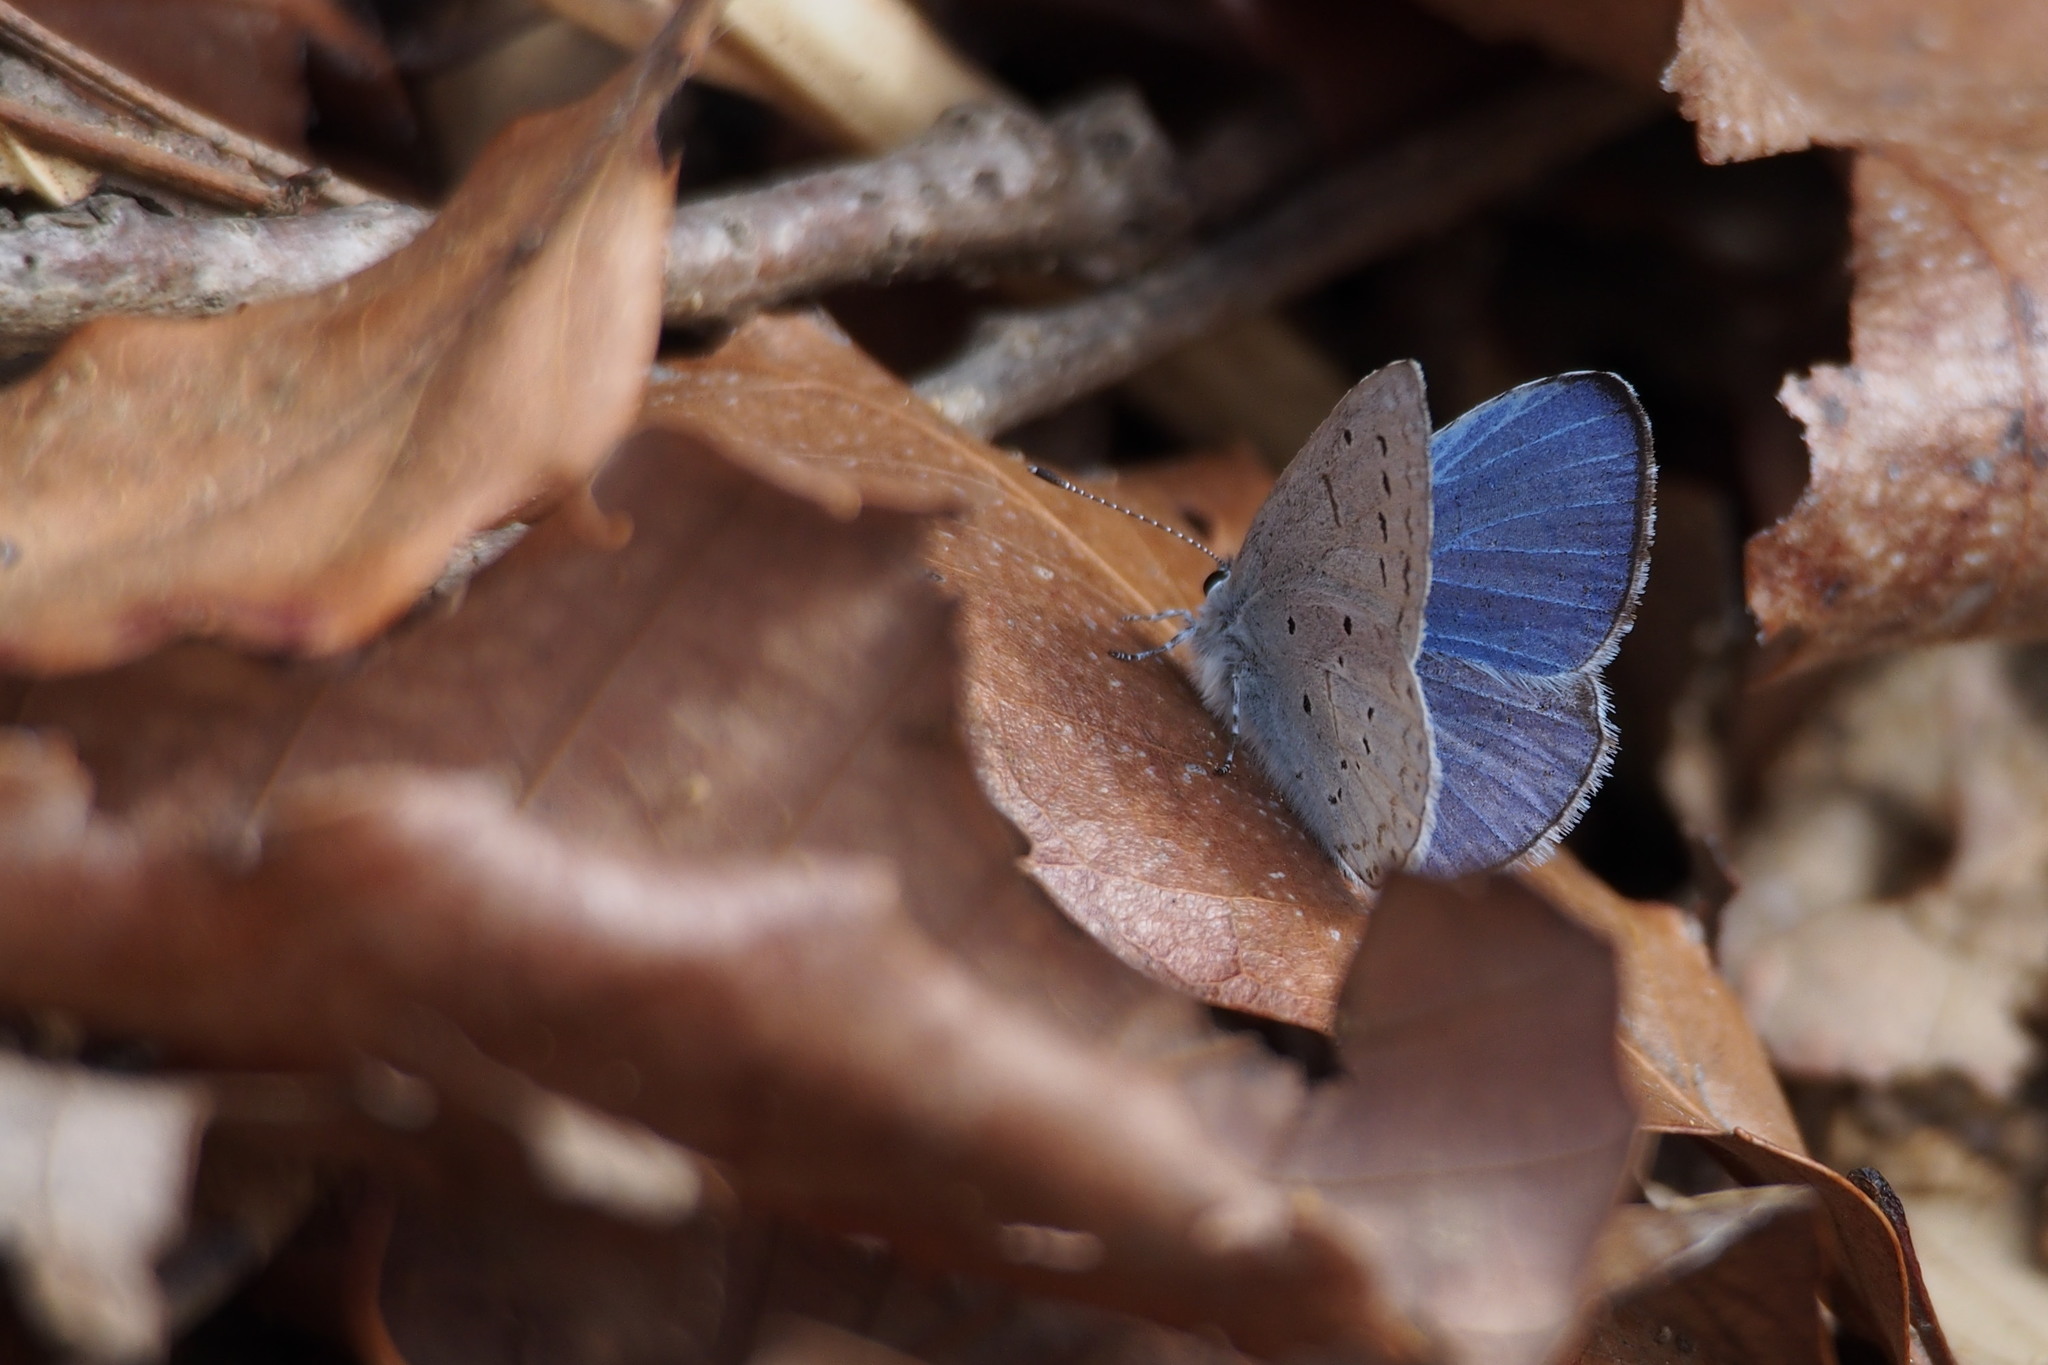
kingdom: Animalia
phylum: Arthropoda
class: Insecta
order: Lepidoptera
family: Lycaenidae
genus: Celastrina
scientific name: Celastrina argiolus
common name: Holly blue
